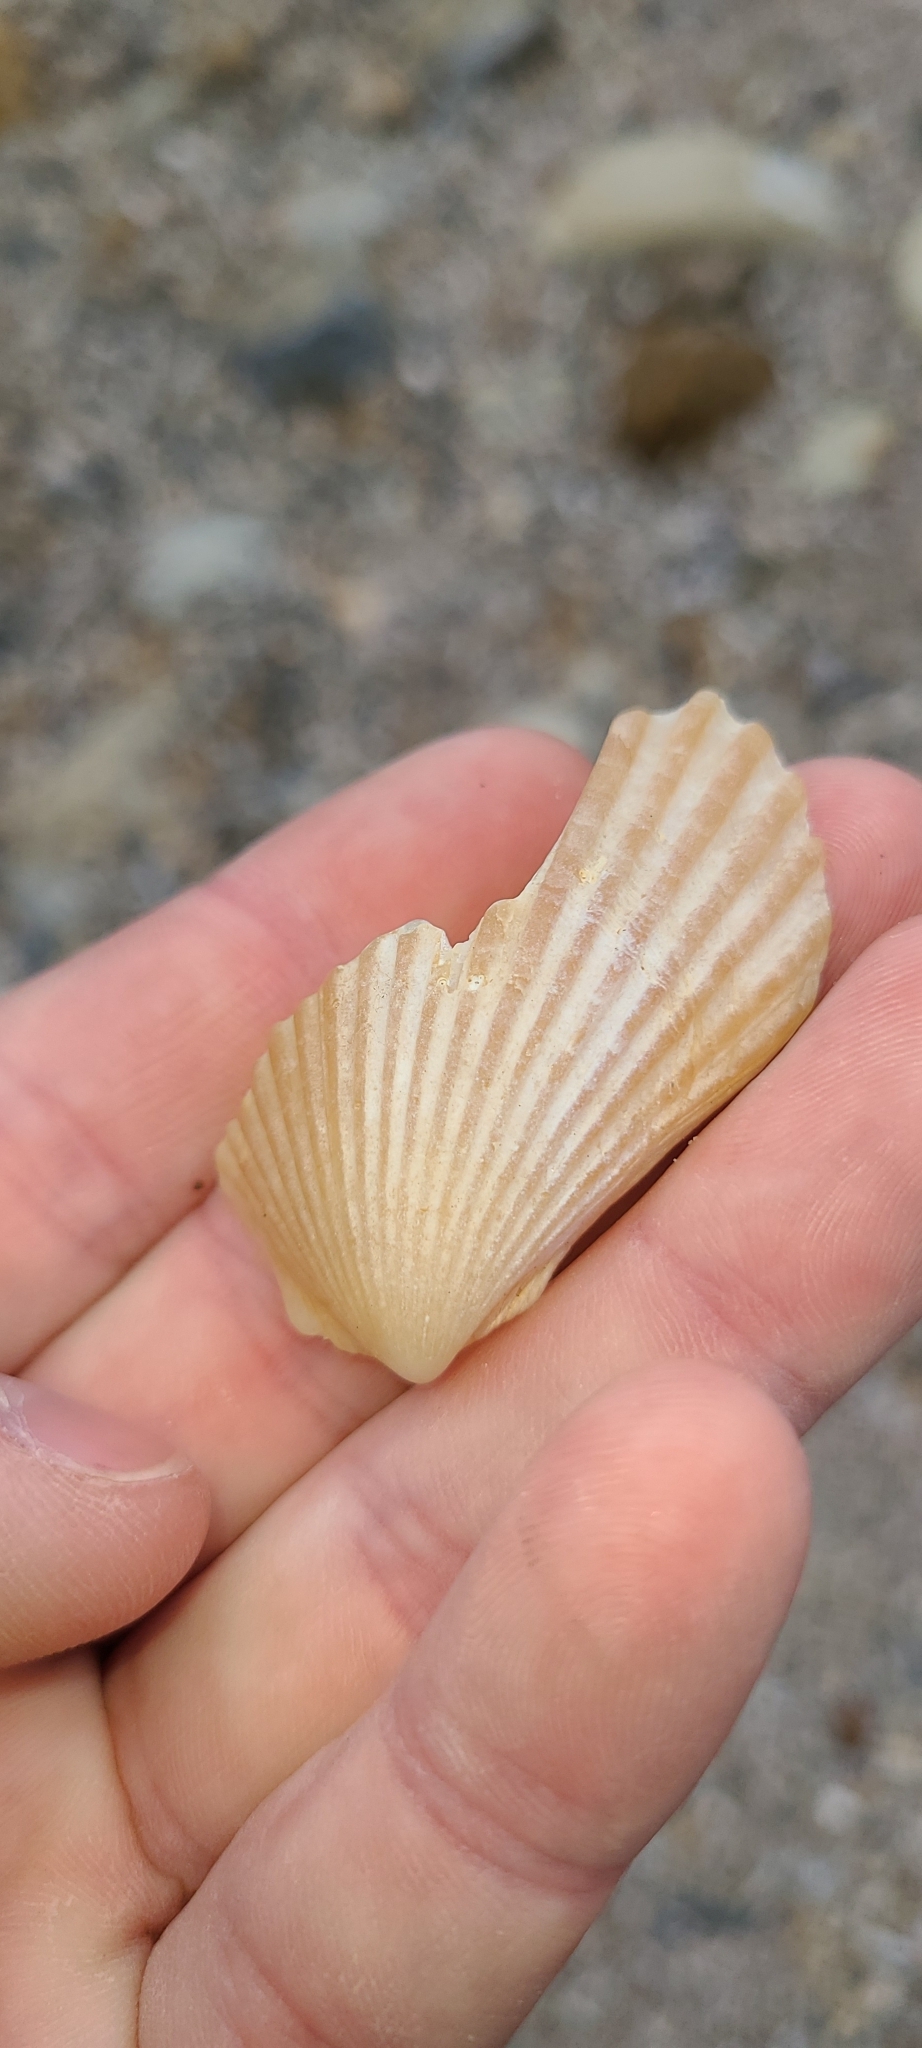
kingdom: Animalia
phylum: Mollusca
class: Bivalvia
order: Limida
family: Limidae
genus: Lima
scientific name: Lima zealandica
